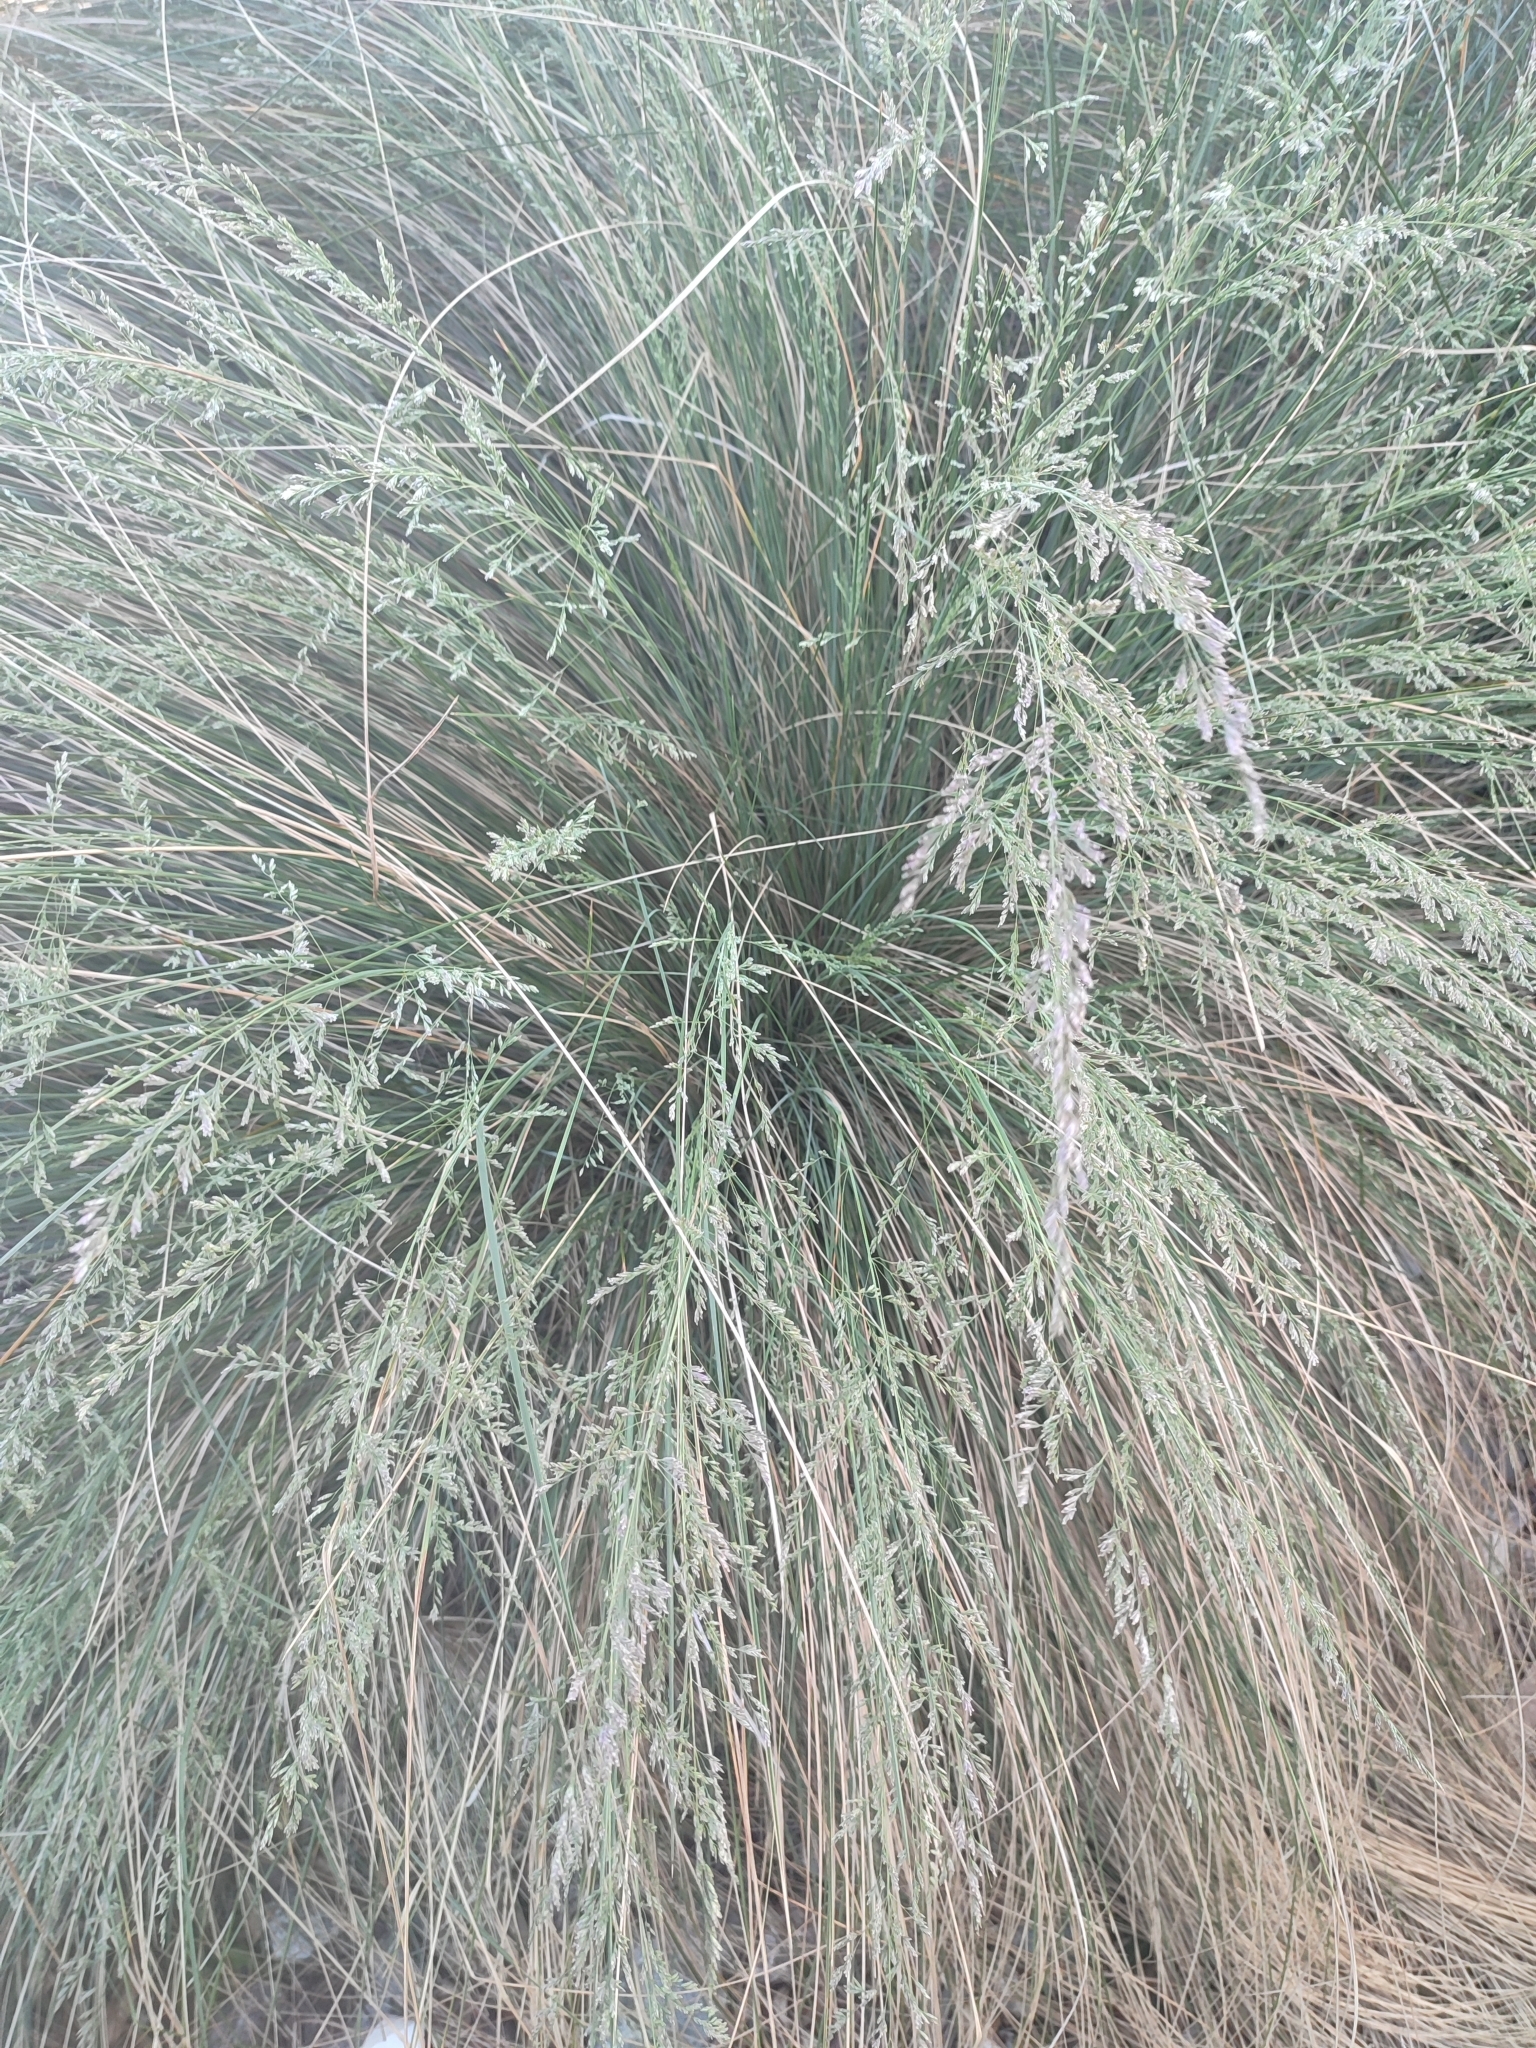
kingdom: Plantae
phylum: Tracheophyta
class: Liliopsida
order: Poales
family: Poaceae
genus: Poa
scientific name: Poa labillardierei
